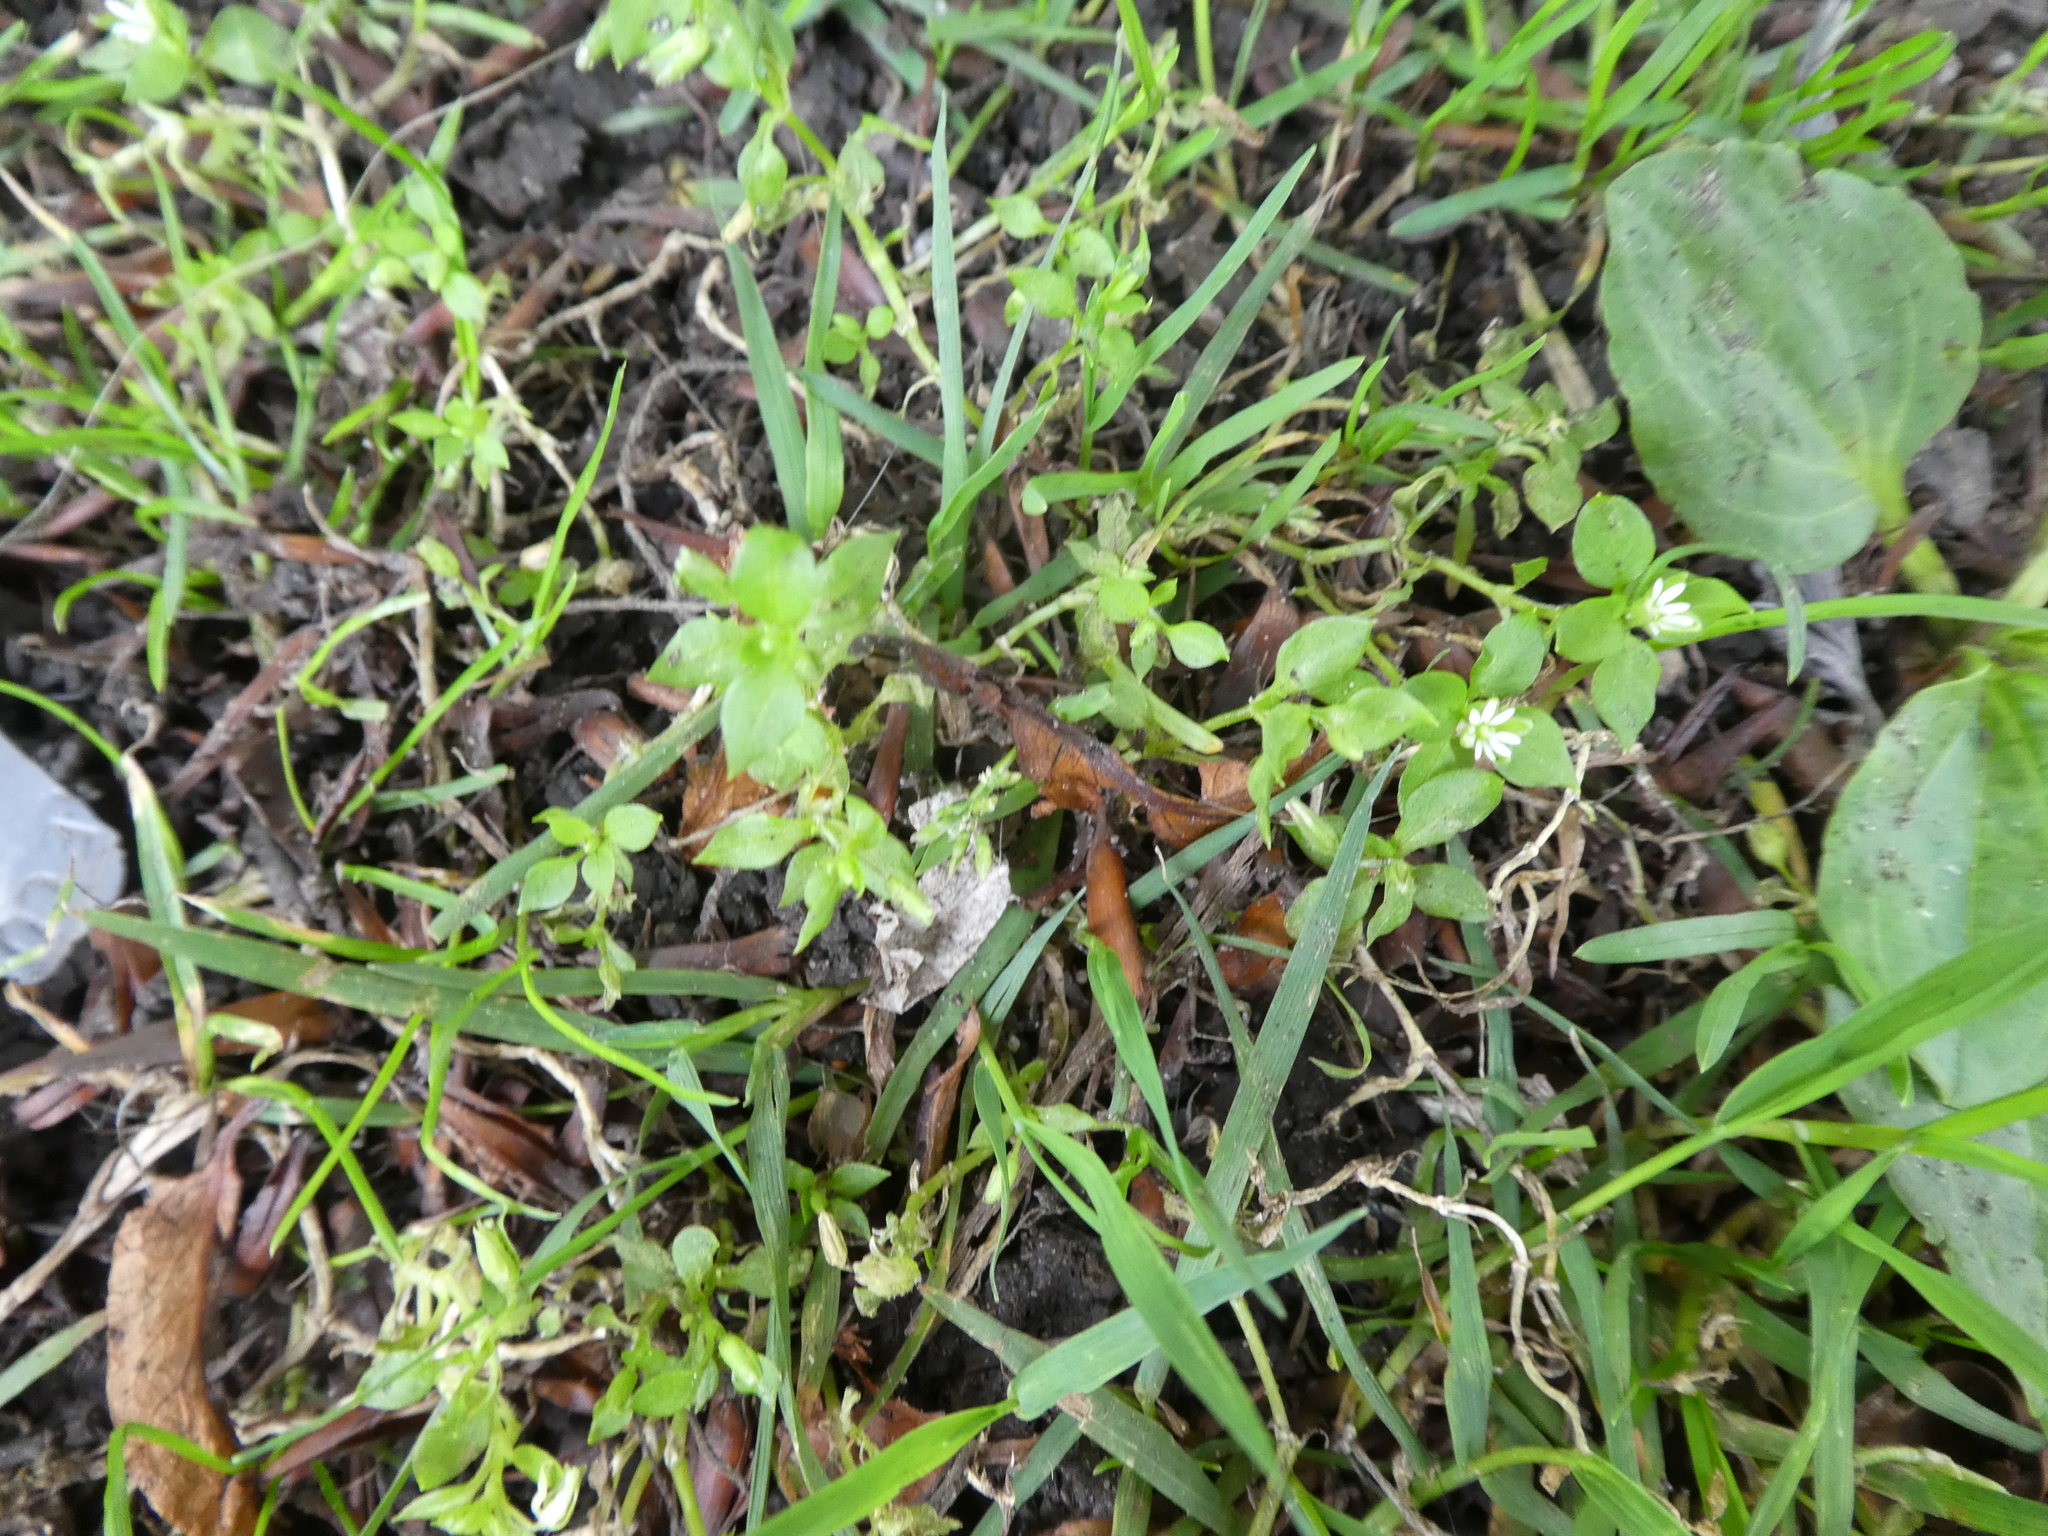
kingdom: Plantae
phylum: Tracheophyta
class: Magnoliopsida
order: Caryophyllales
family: Caryophyllaceae
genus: Stellaria
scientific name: Stellaria media
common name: Common chickweed
